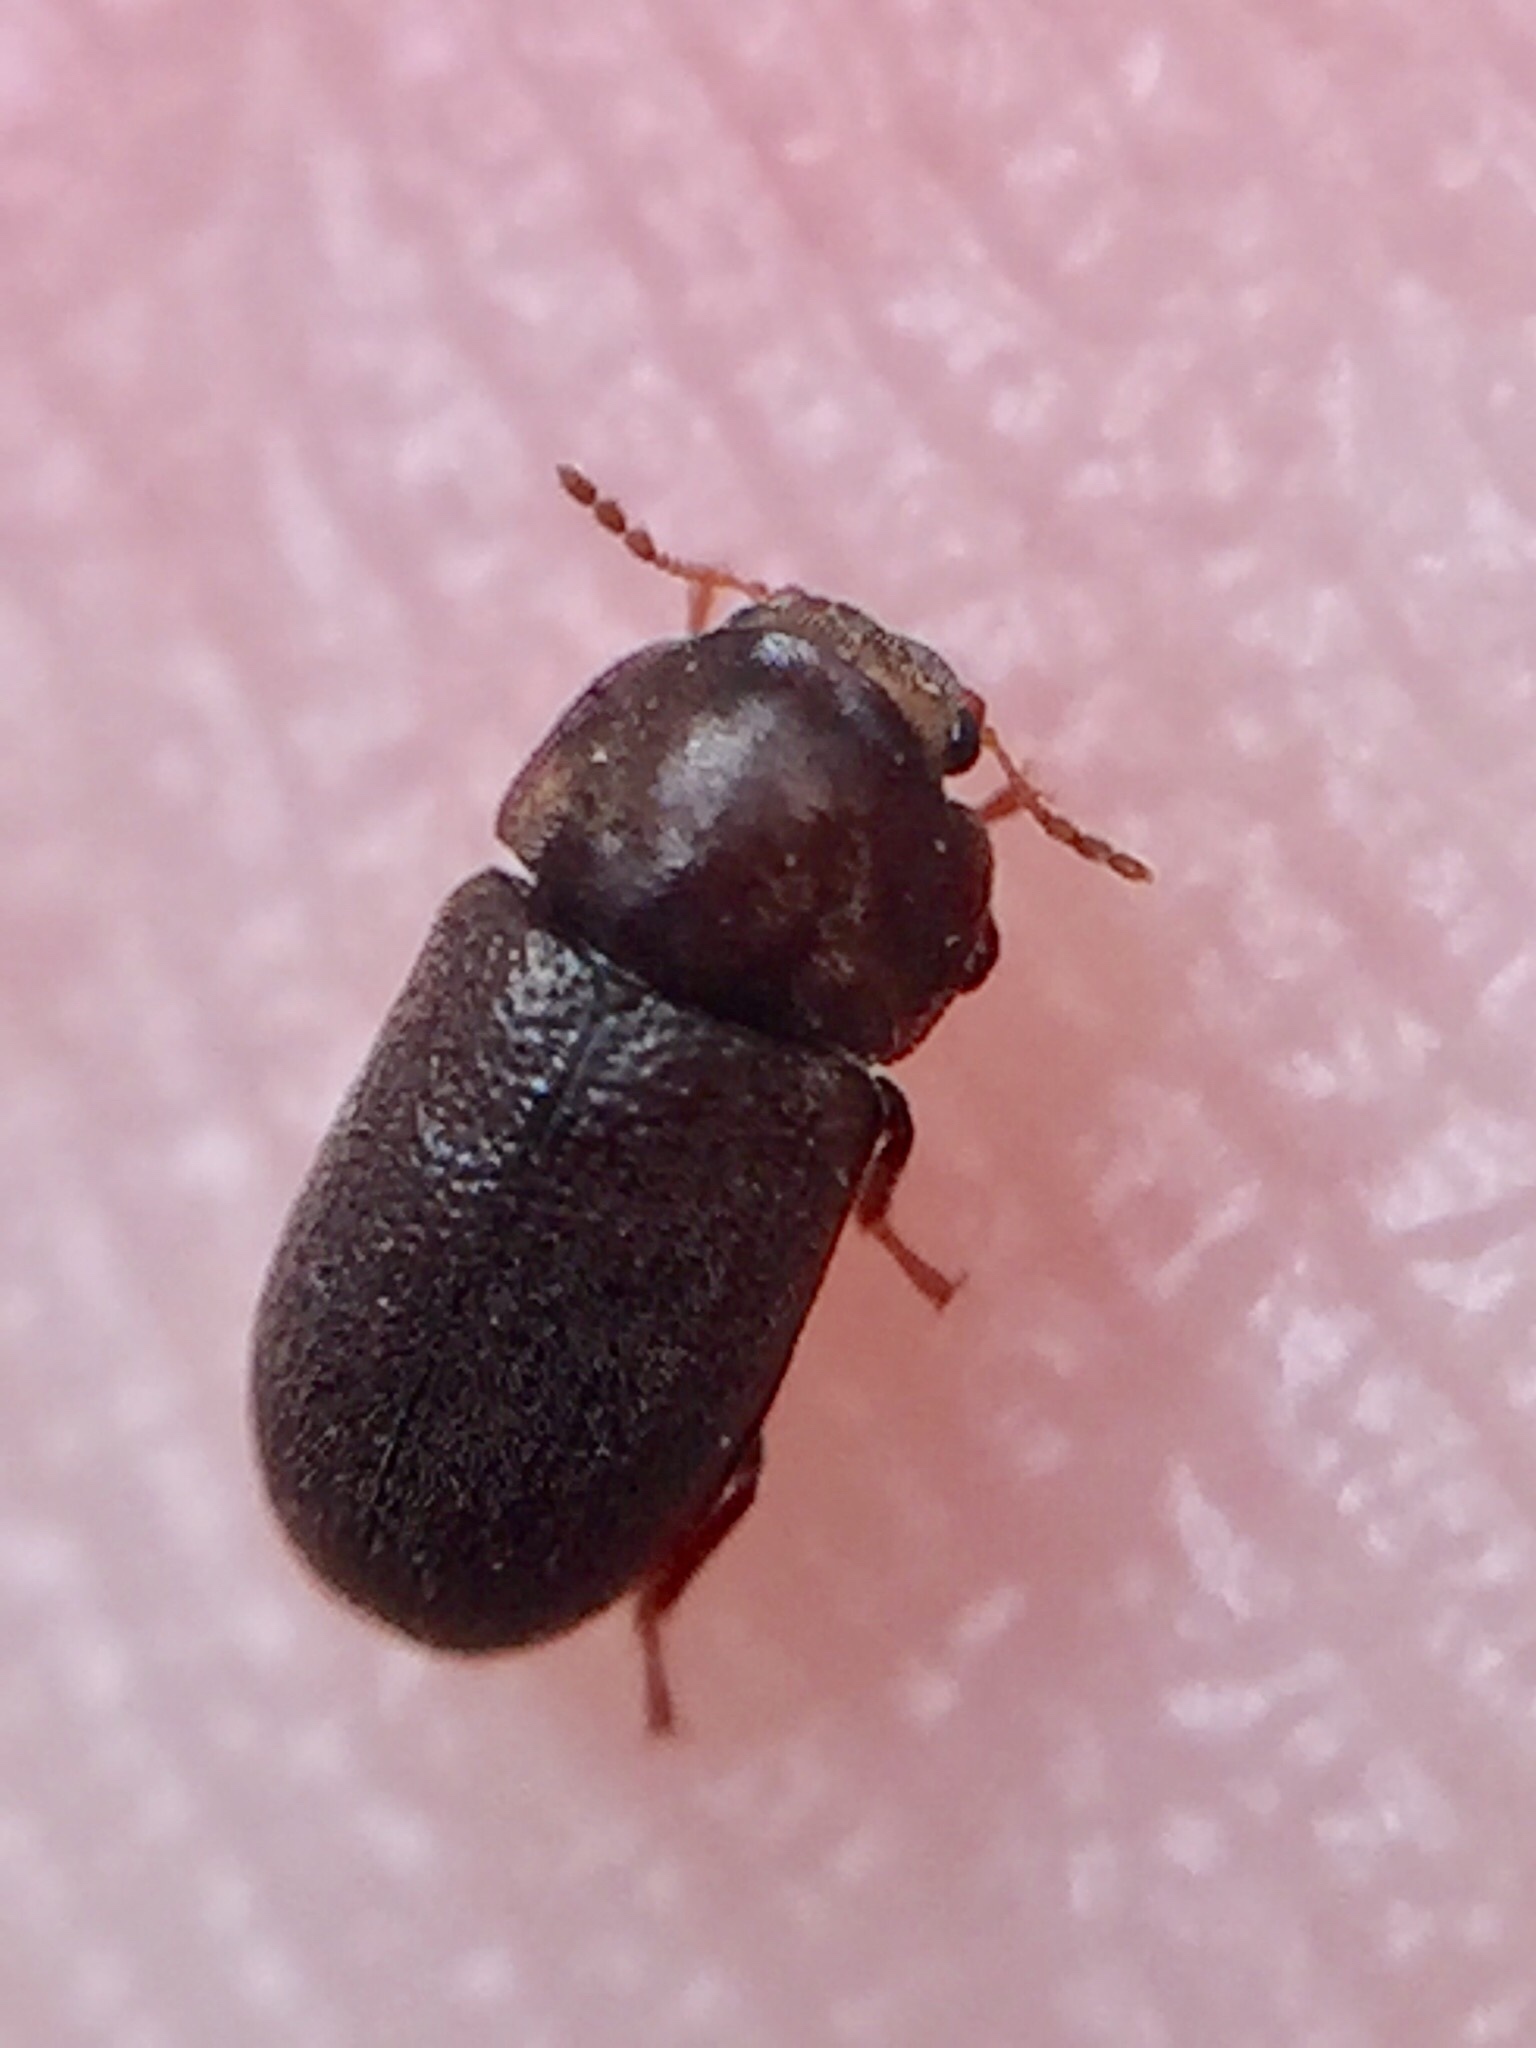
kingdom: Animalia
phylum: Arthropoda
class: Insecta
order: Coleoptera
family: Ciidae
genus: Cis
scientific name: Cis boleti
